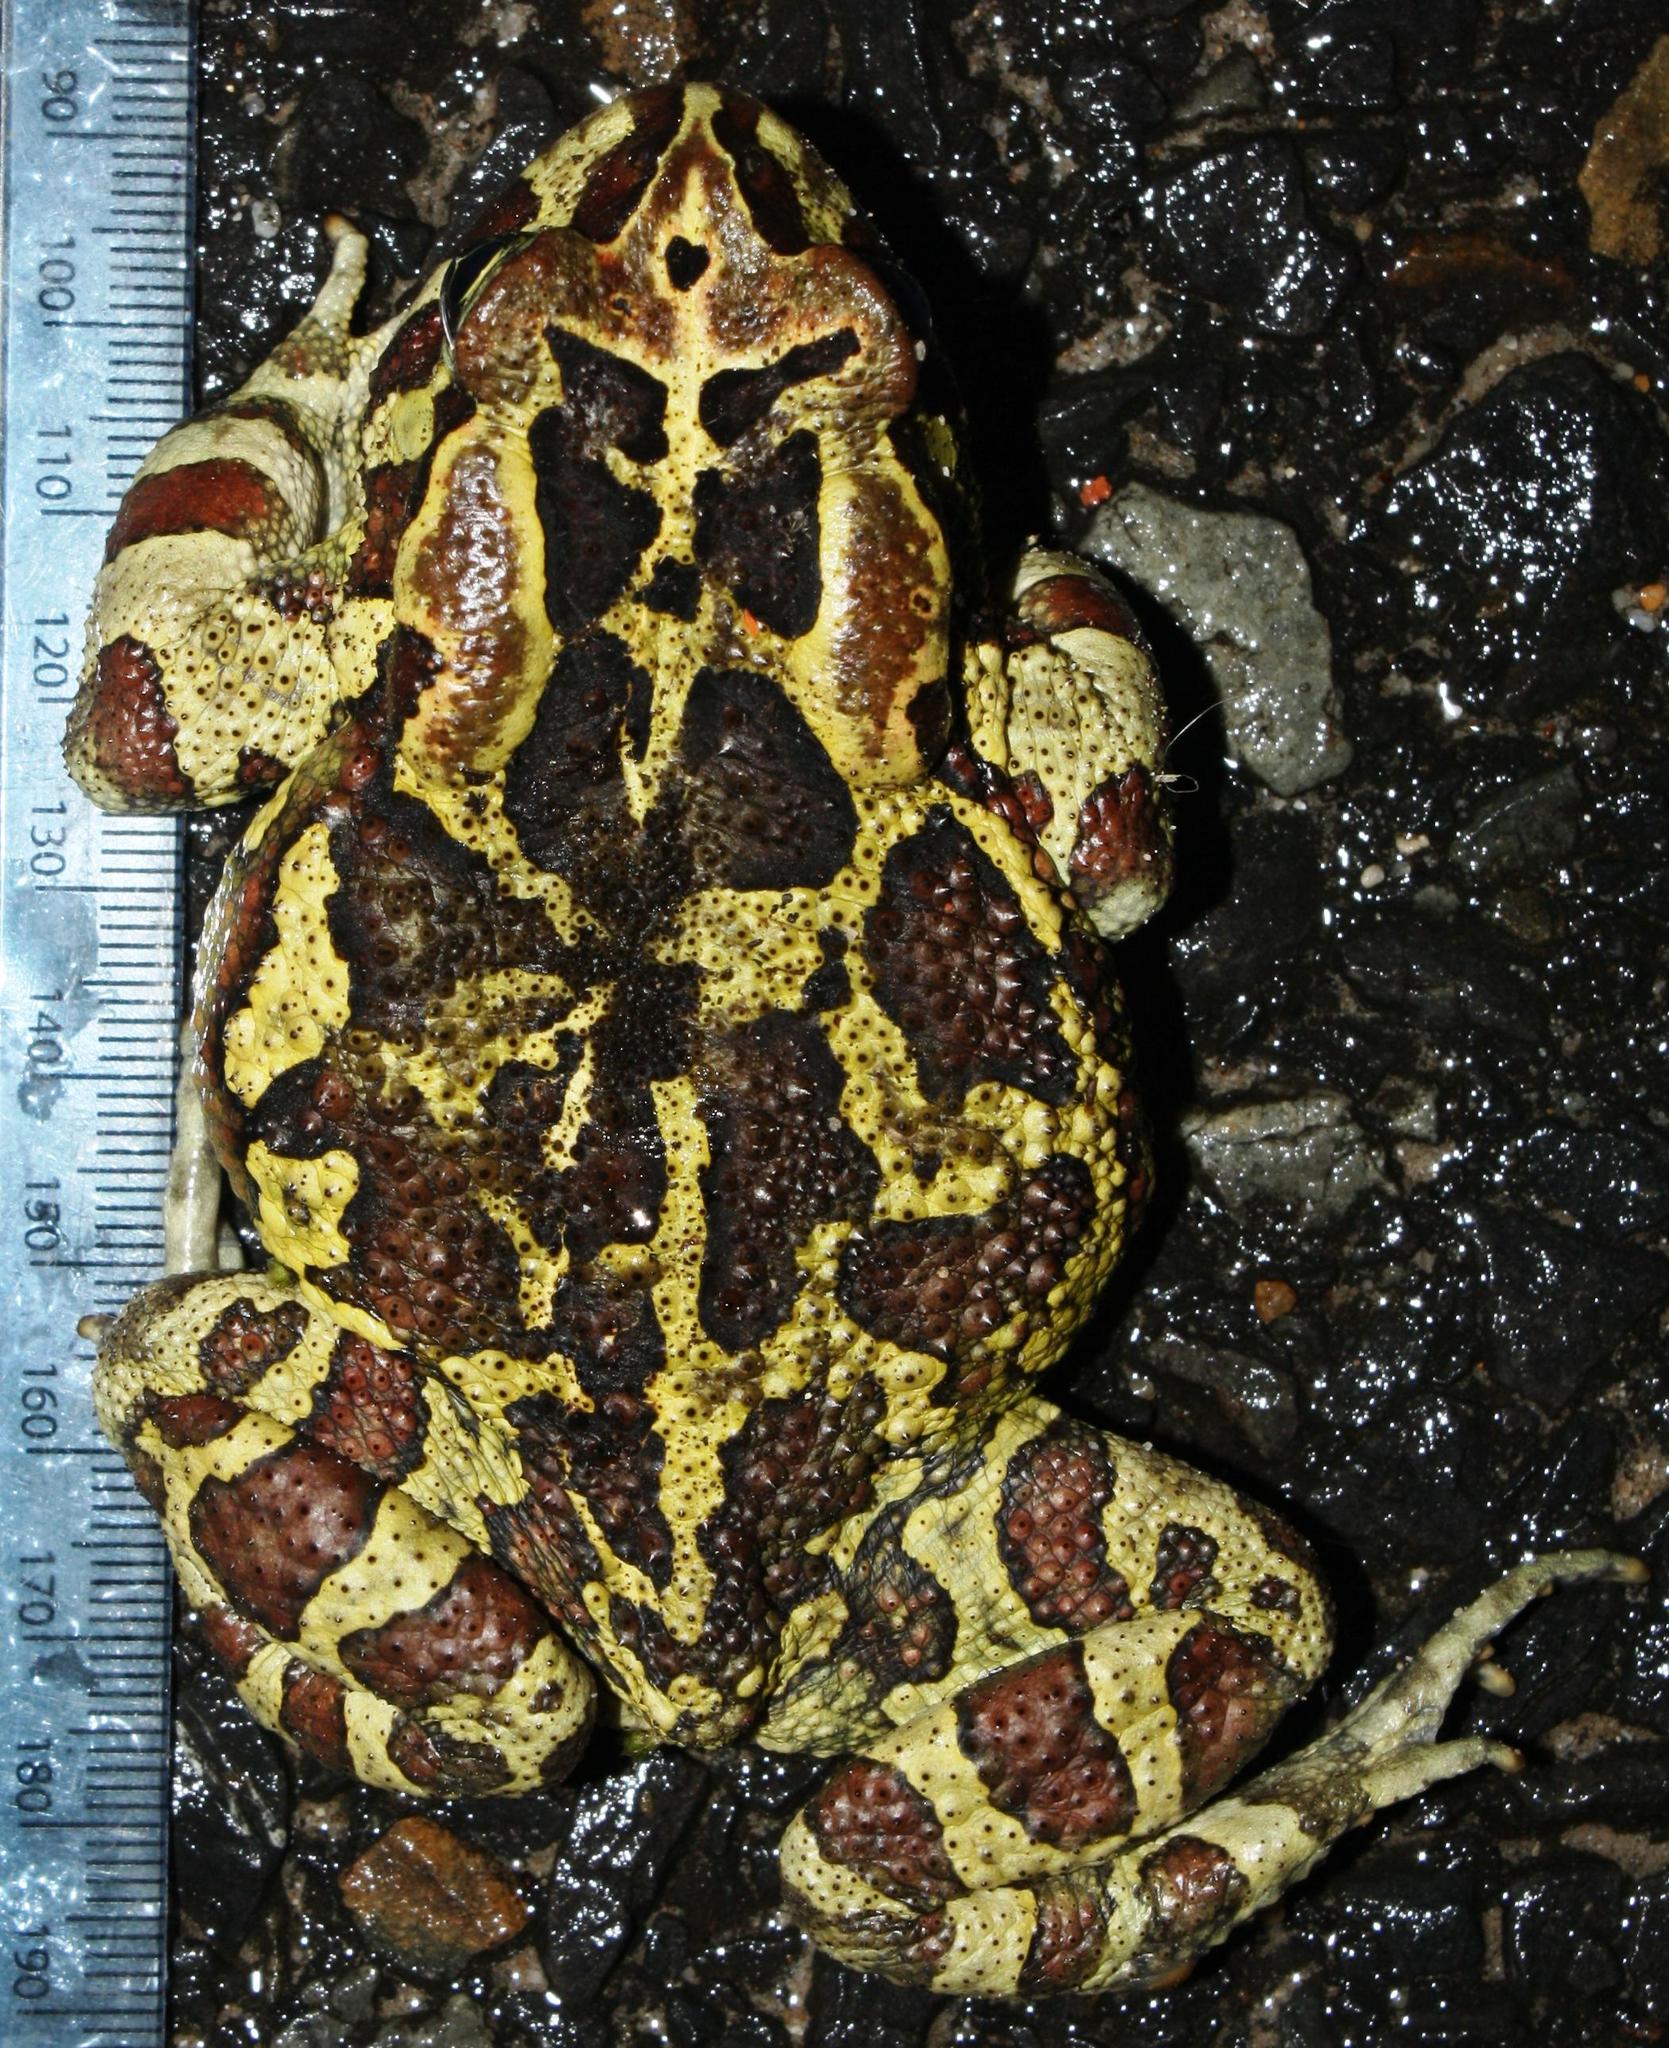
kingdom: Animalia
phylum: Chordata
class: Amphibia
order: Anura
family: Bufonidae
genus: Sclerophrys
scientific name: Sclerophrys pantherina
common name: Panther toad
